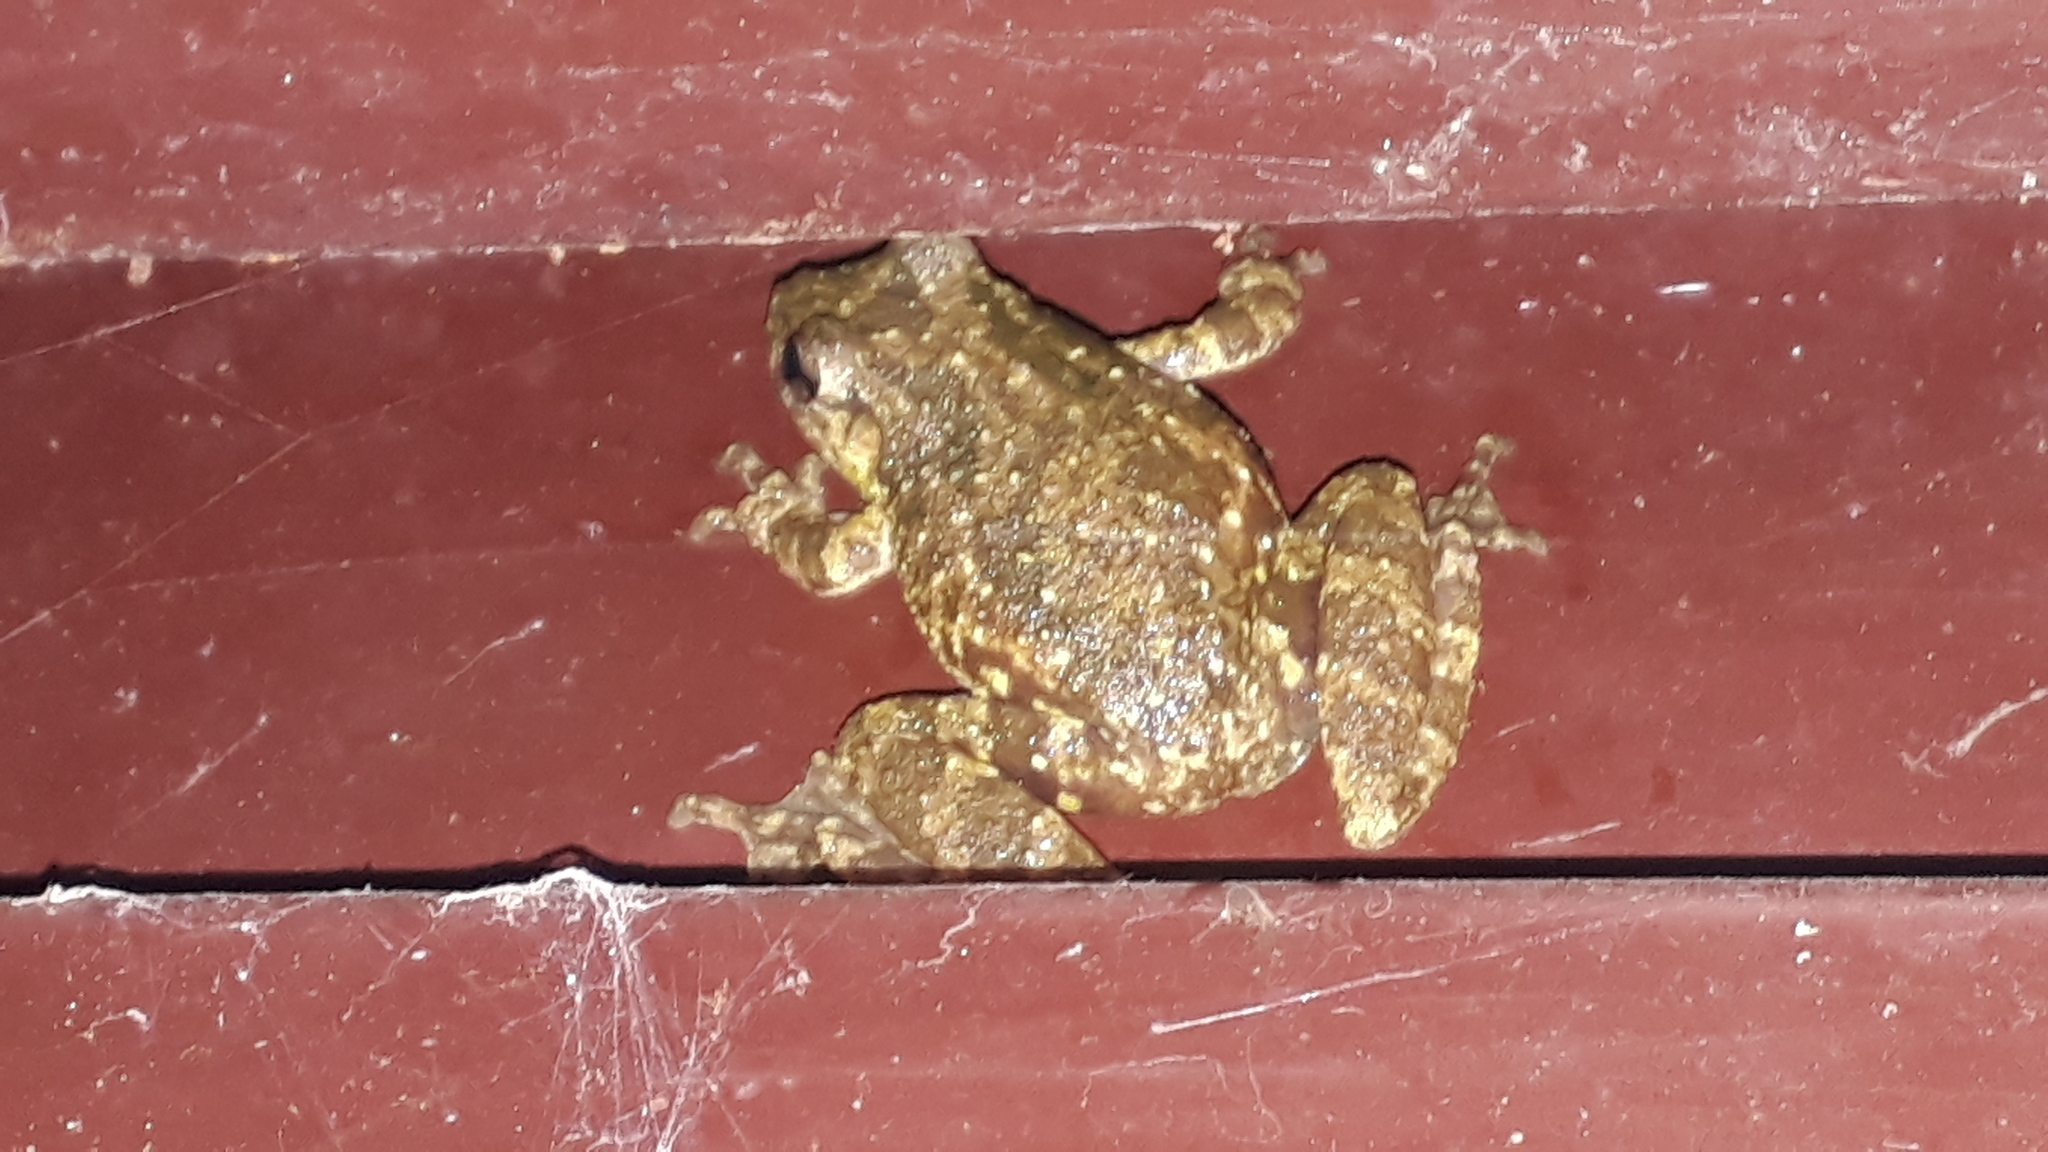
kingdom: Animalia
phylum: Chordata
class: Amphibia
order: Anura
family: Hylidae
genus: Scinax
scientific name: Scinax granulatus
